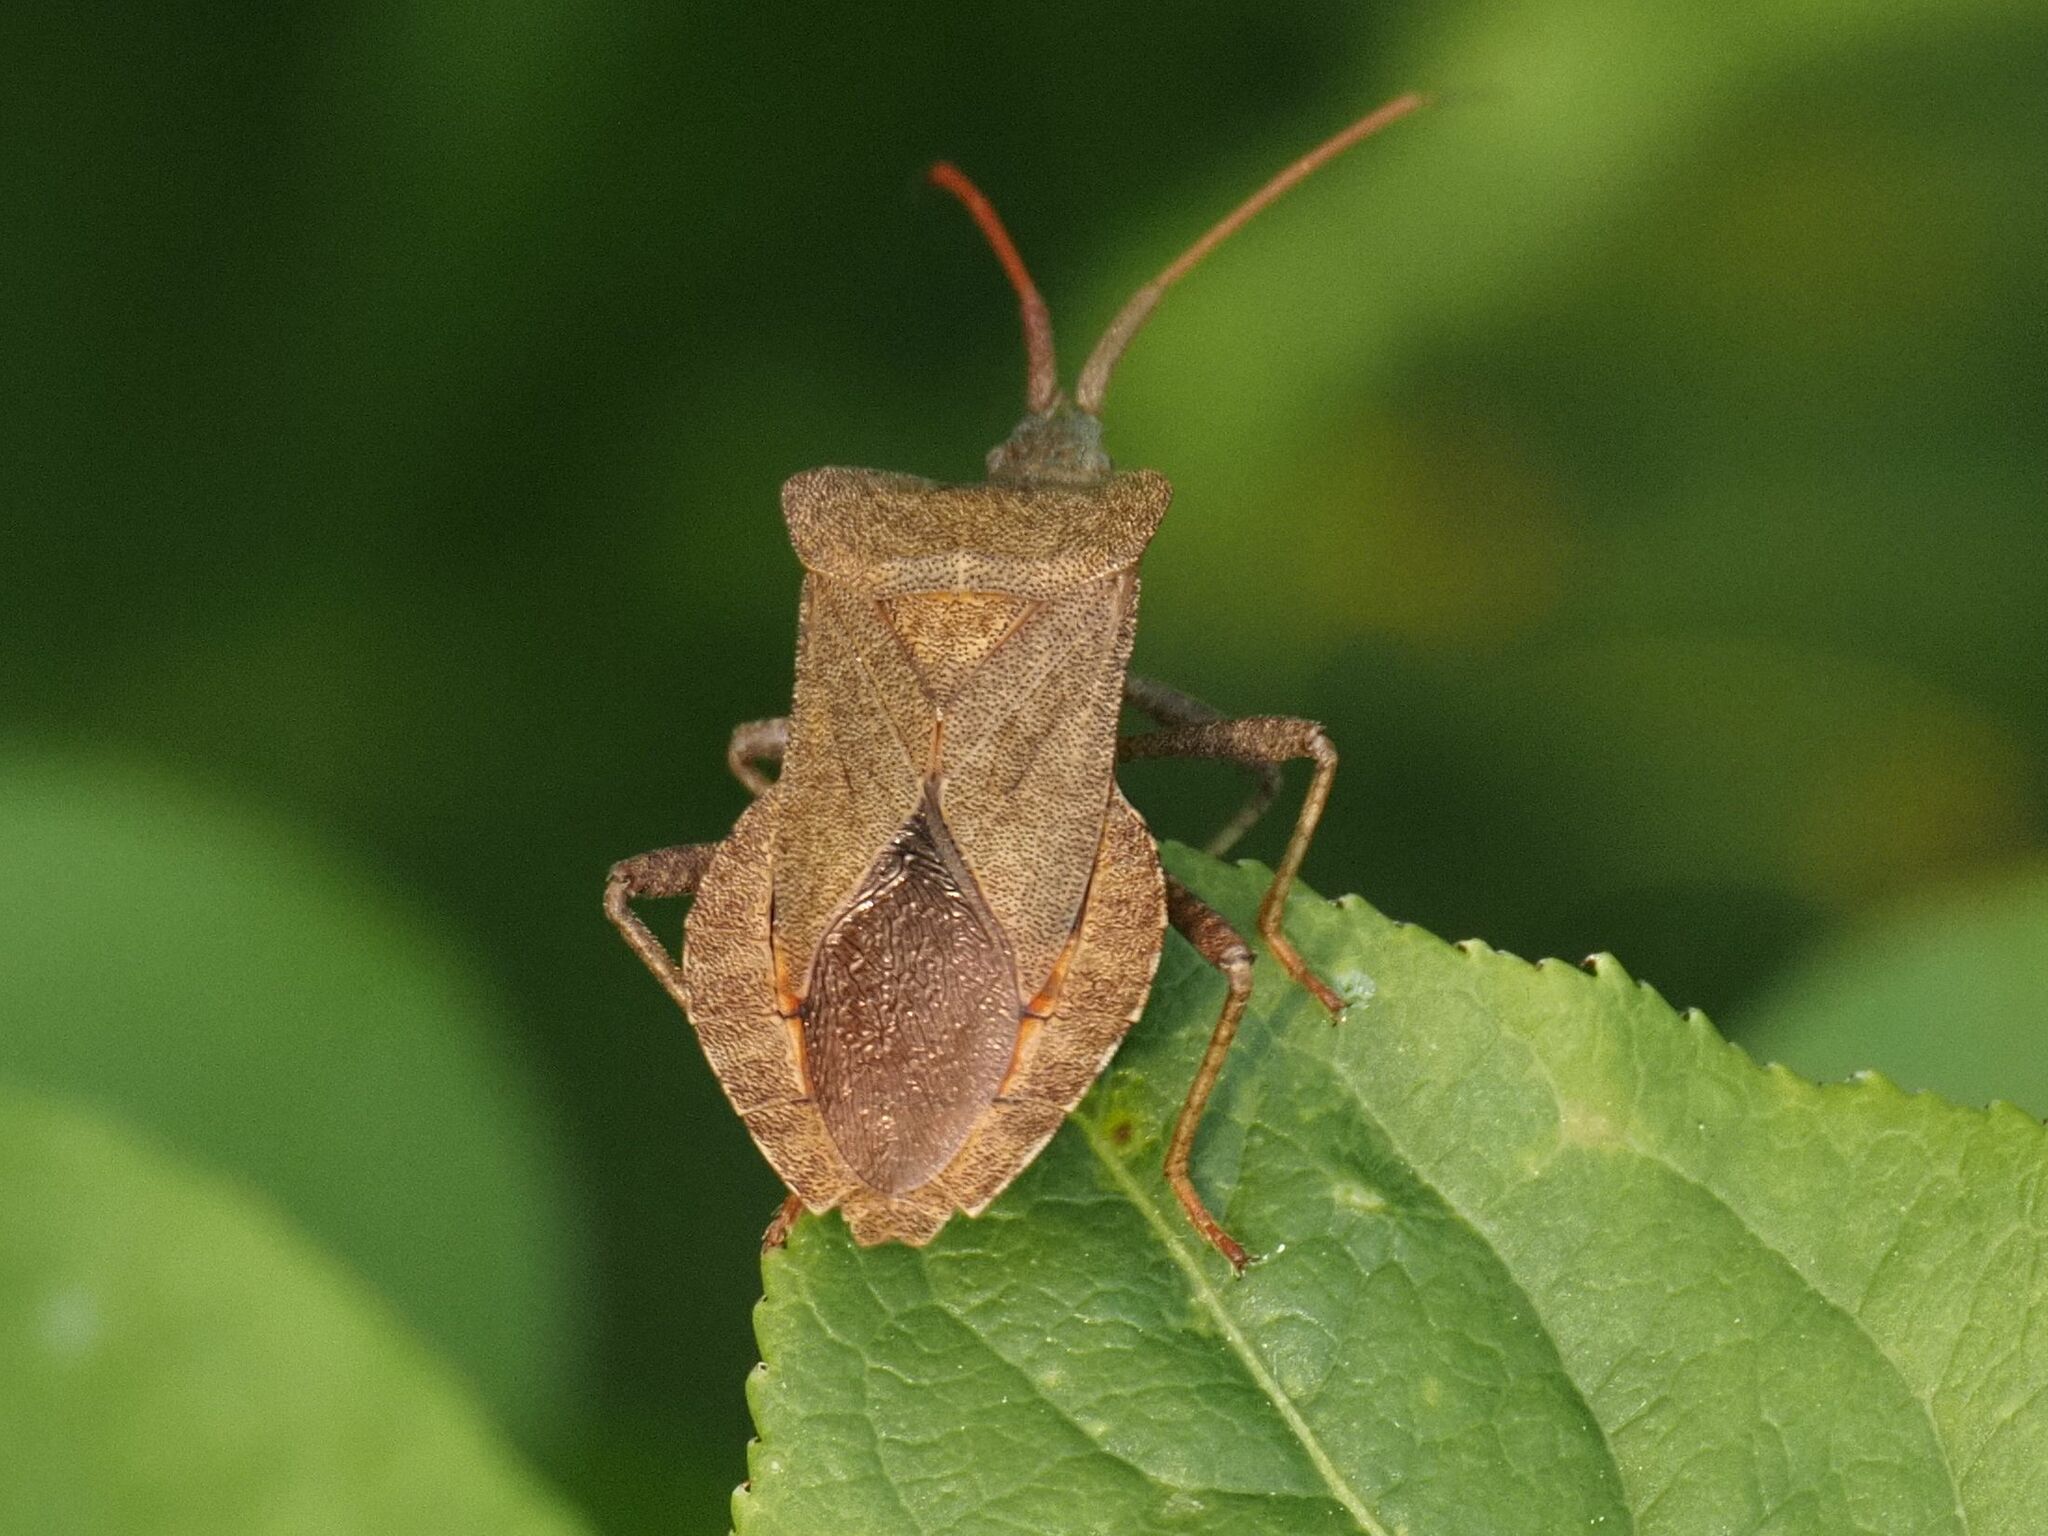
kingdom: Animalia
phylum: Arthropoda
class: Insecta
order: Hemiptera
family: Coreidae
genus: Coreus
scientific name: Coreus marginatus
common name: Dock bug
